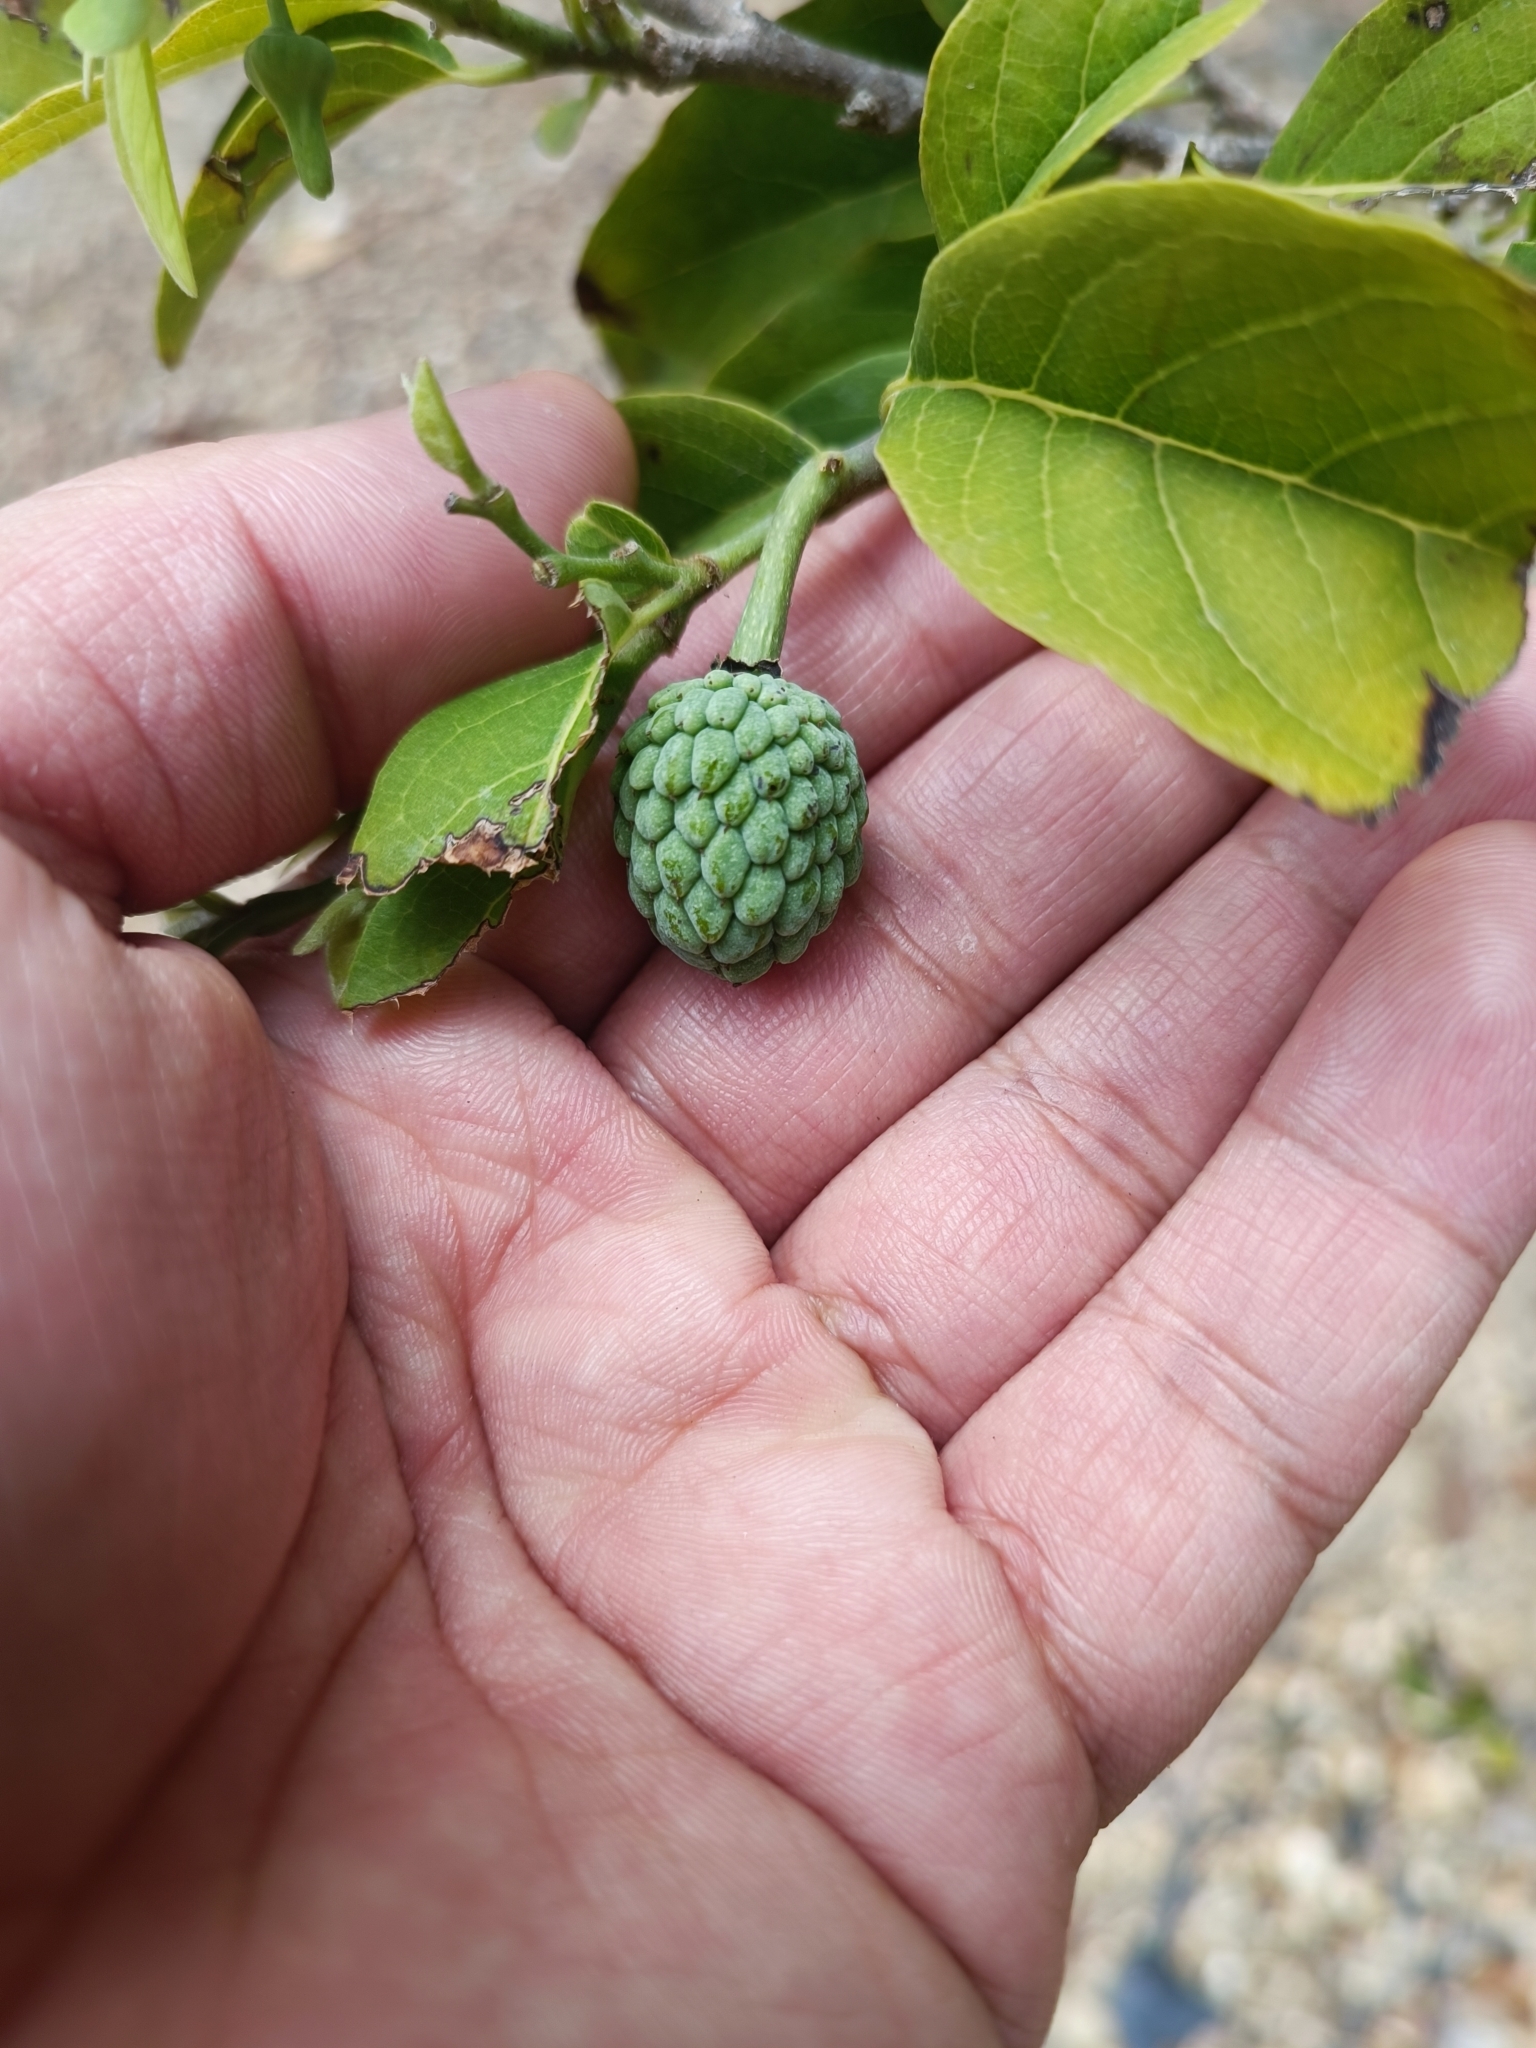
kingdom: Plantae
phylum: Tracheophyta
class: Magnoliopsida
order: Magnoliales
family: Annonaceae
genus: Annona
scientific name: Annona squamosa
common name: Custard-apple
